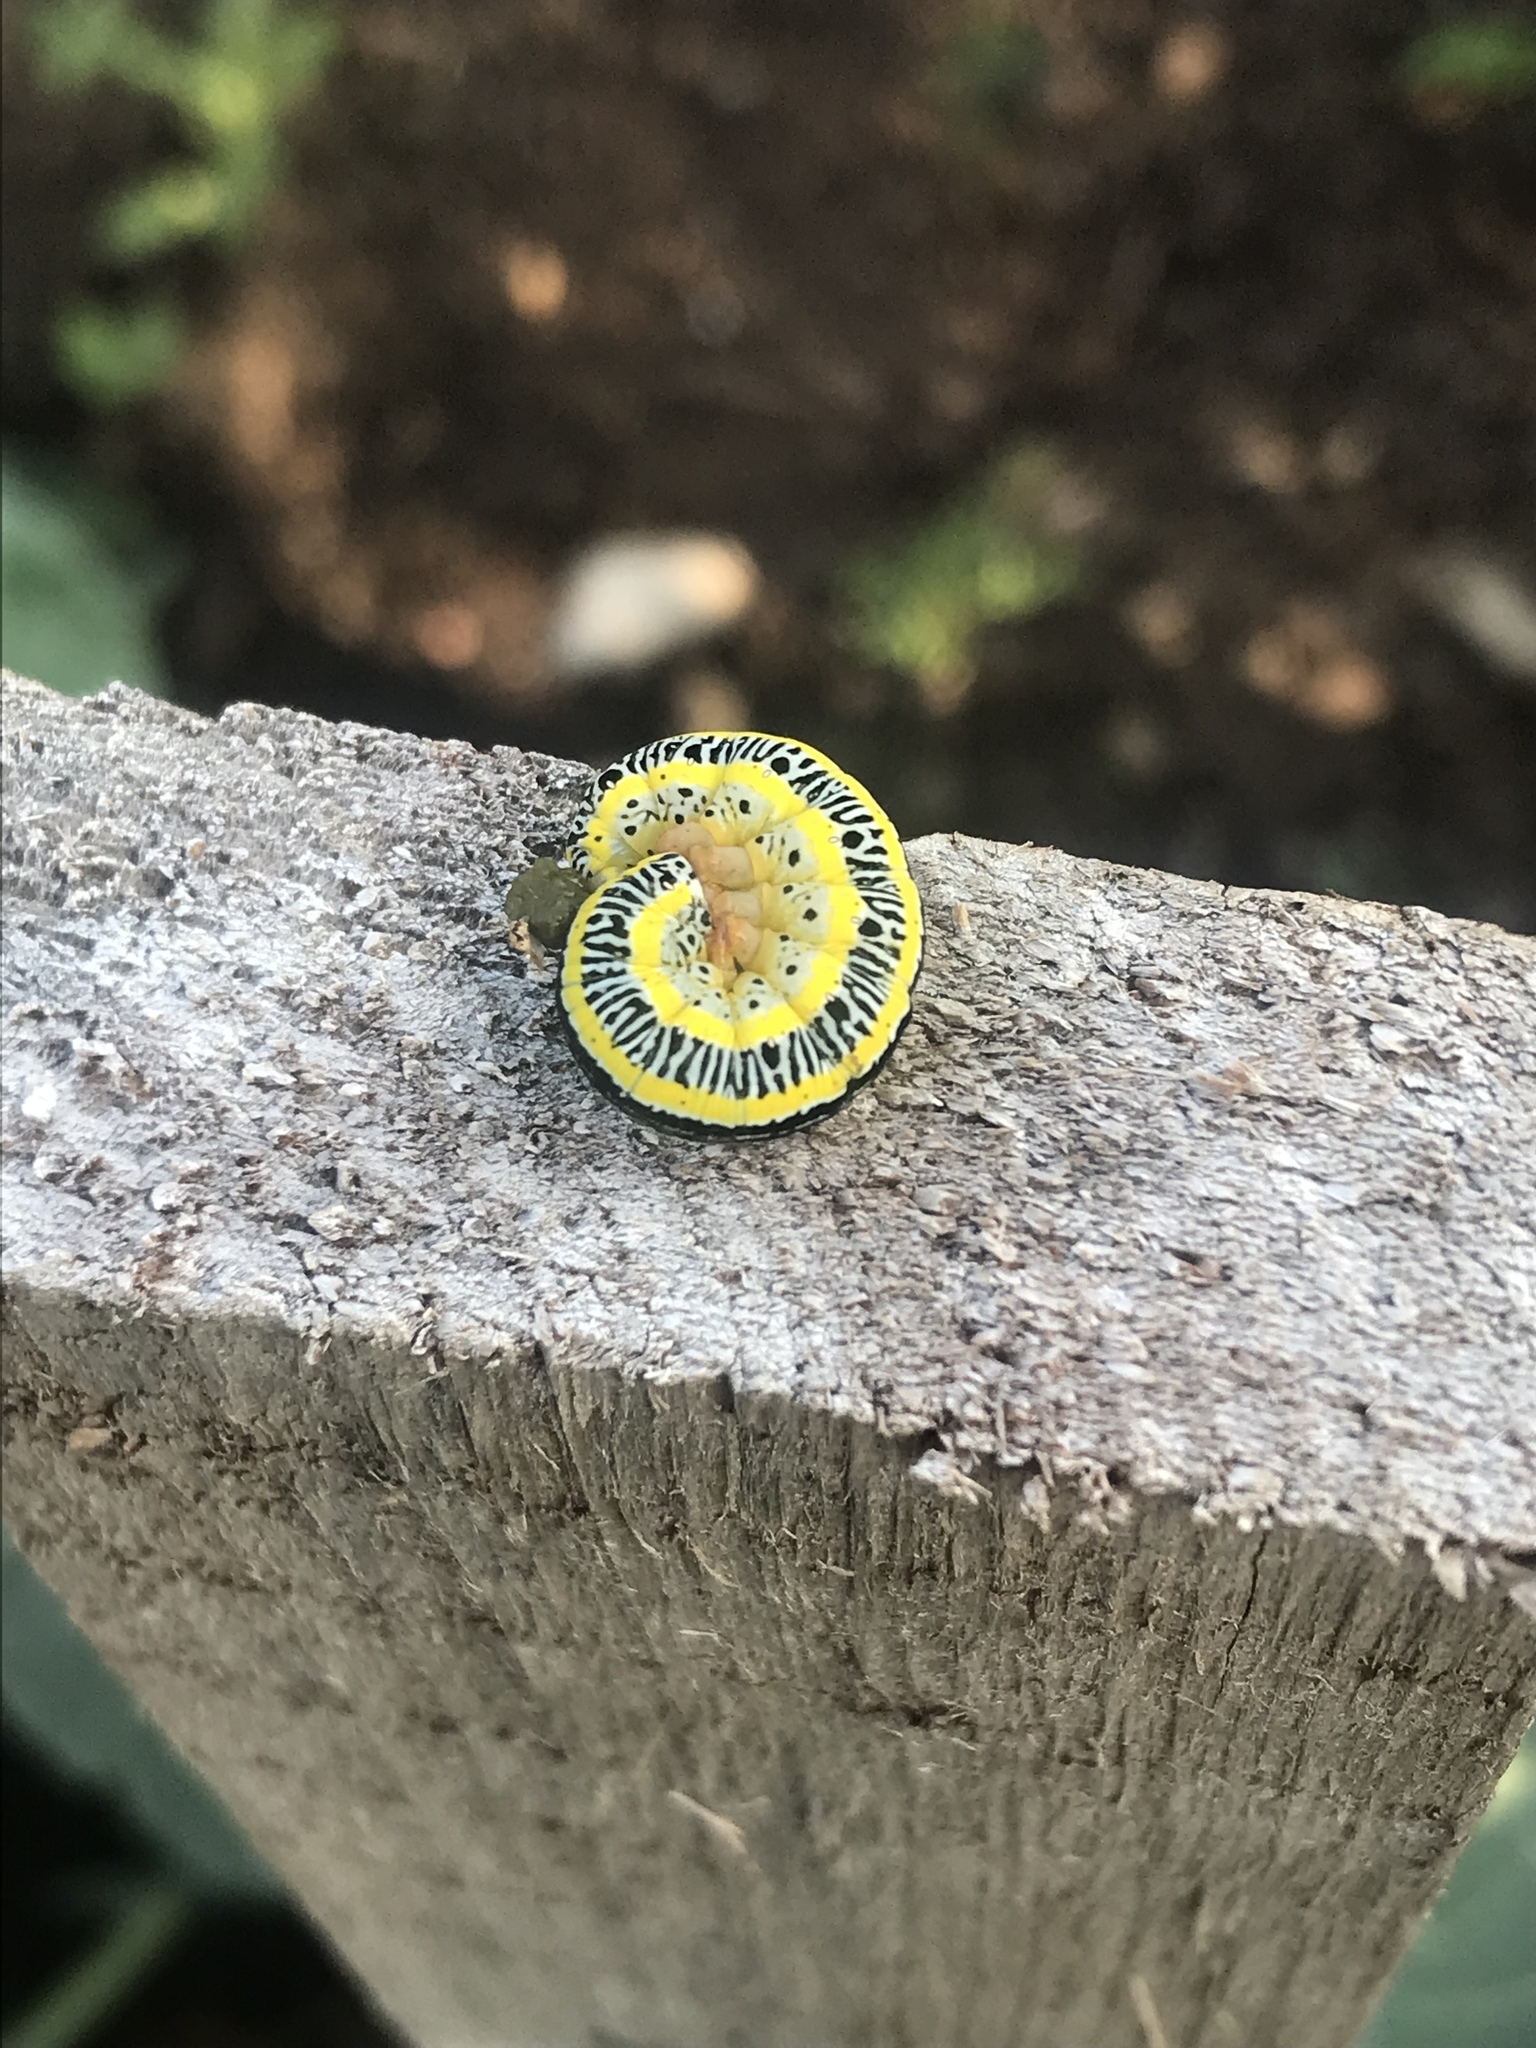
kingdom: Animalia
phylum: Arthropoda
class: Insecta
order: Lepidoptera
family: Noctuidae
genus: Melanchra
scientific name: Melanchra picta
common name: Zebra caterpillar
